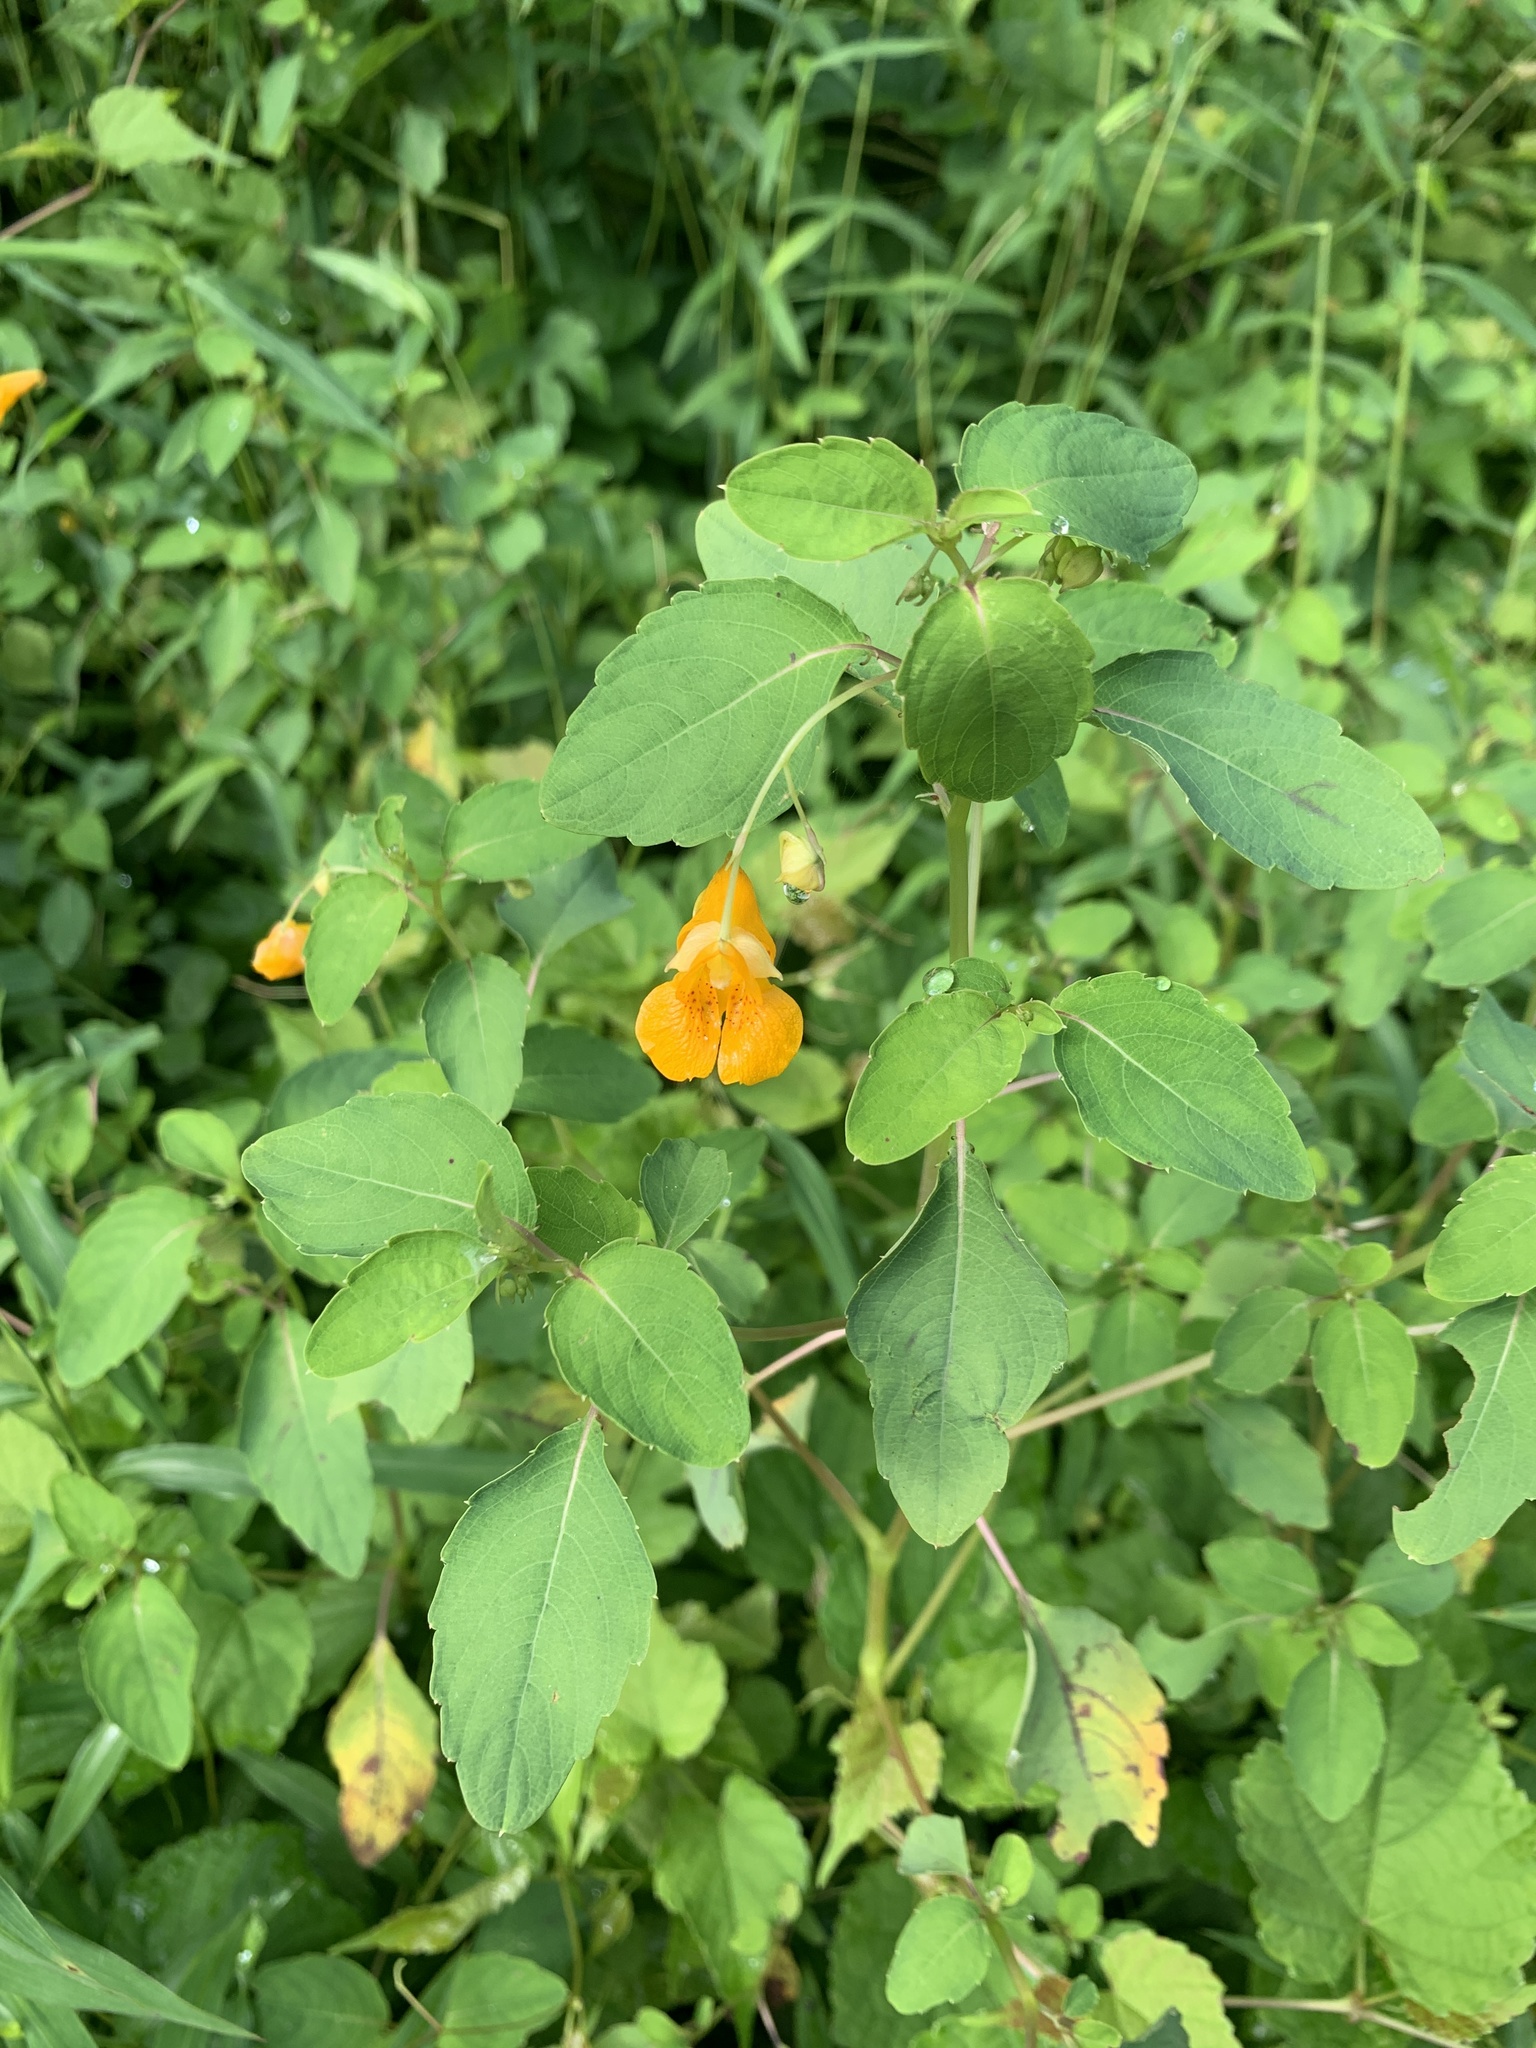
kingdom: Plantae
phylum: Tracheophyta
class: Magnoliopsida
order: Ericales
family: Balsaminaceae
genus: Impatiens
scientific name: Impatiens capensis
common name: Orange balsam
